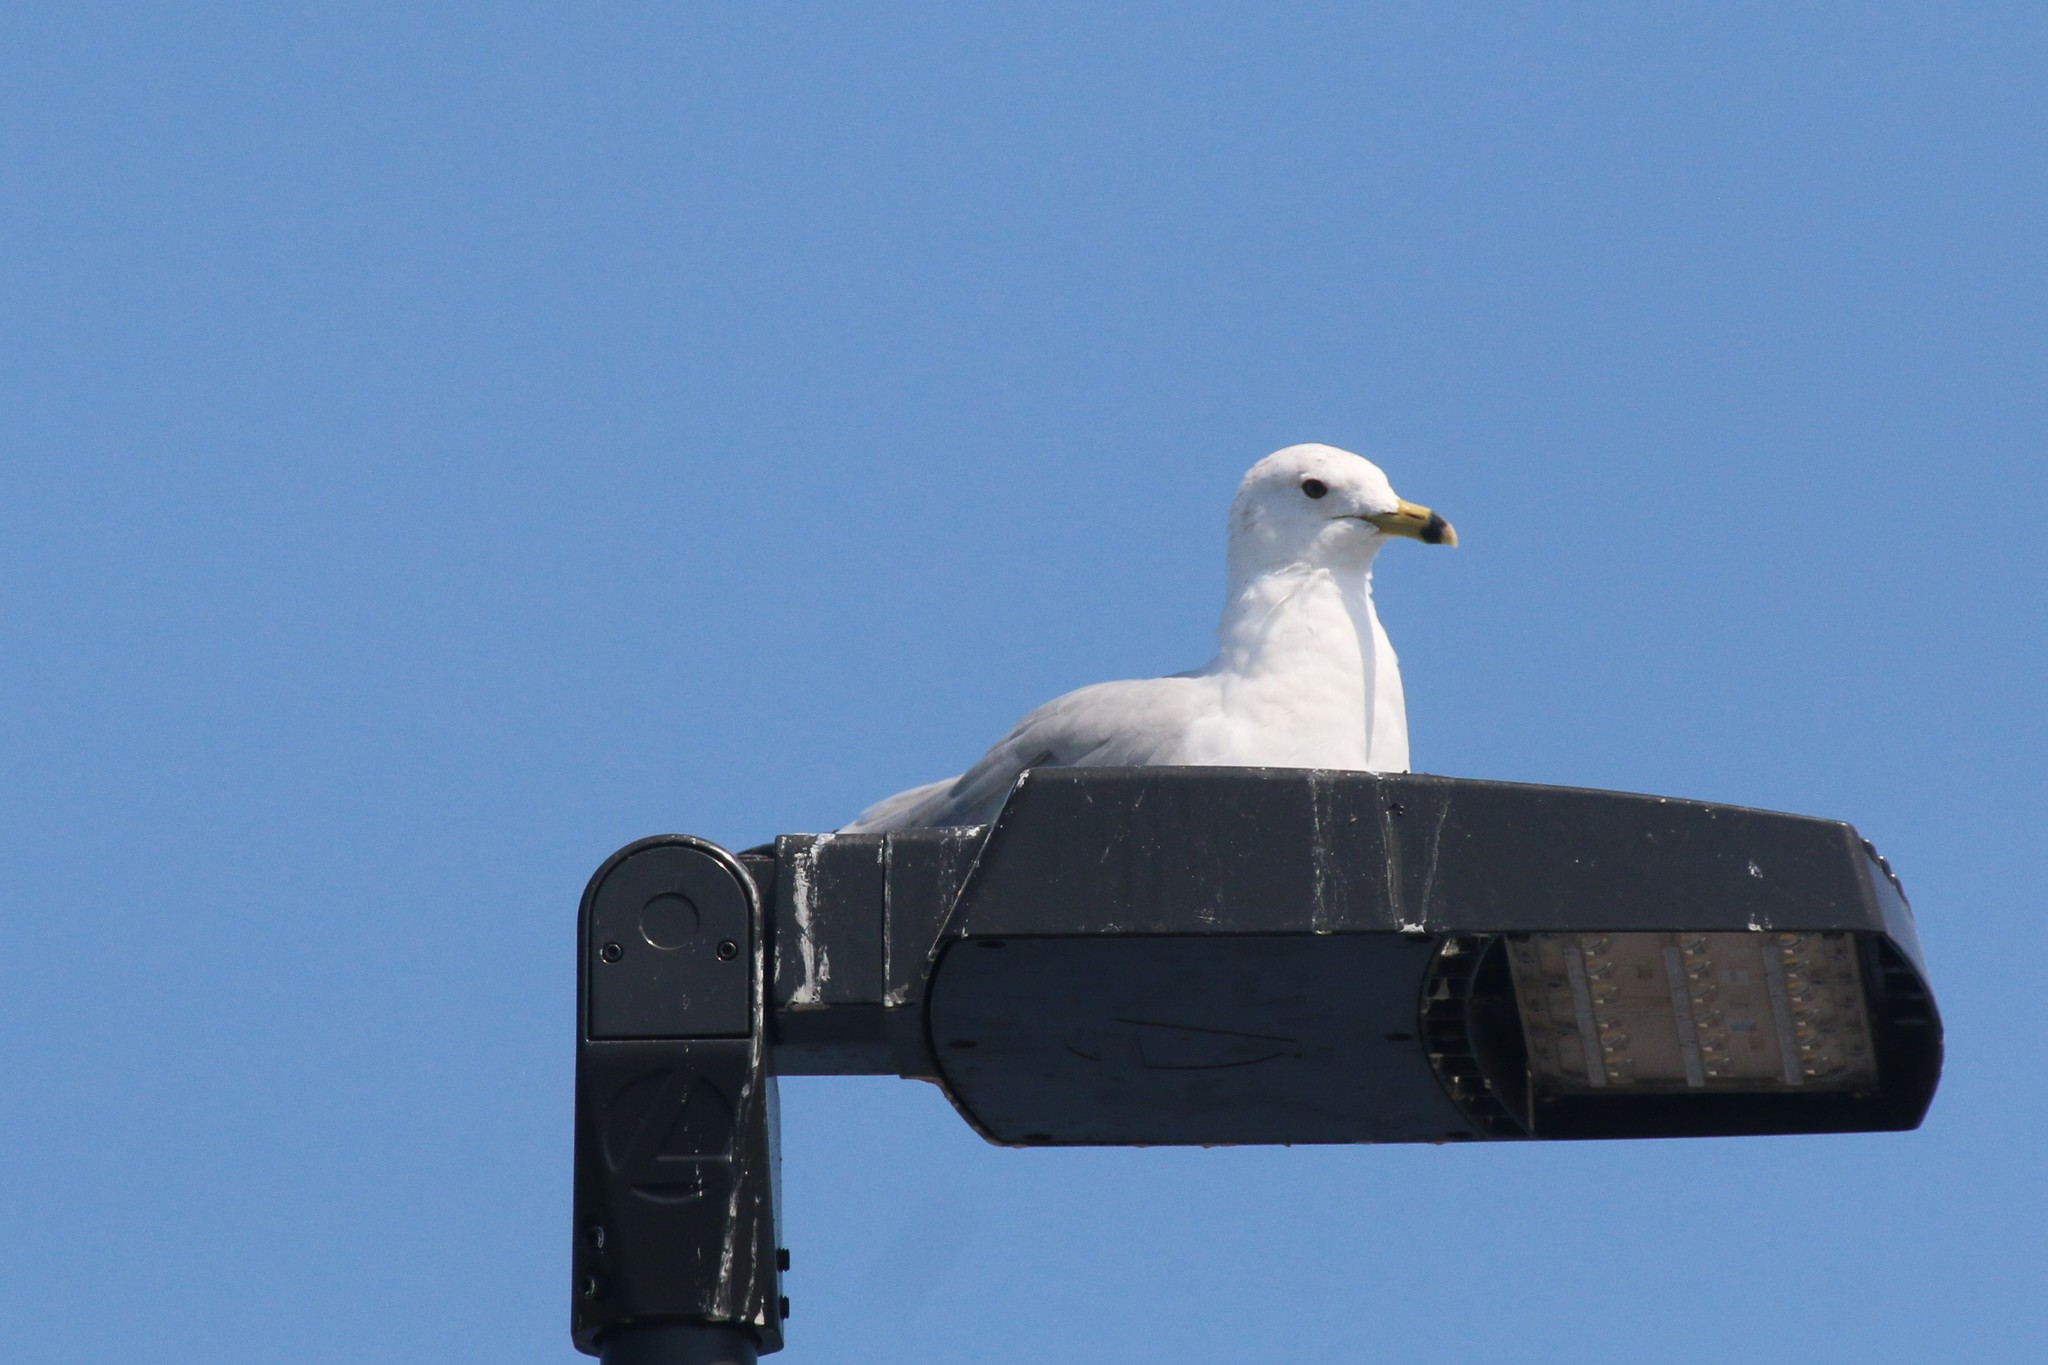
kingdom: Animalia
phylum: Chordata
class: Aves
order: Charadriiformes
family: Laridae
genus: Larus
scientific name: Larus delawarensis
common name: Ring-billed gull
